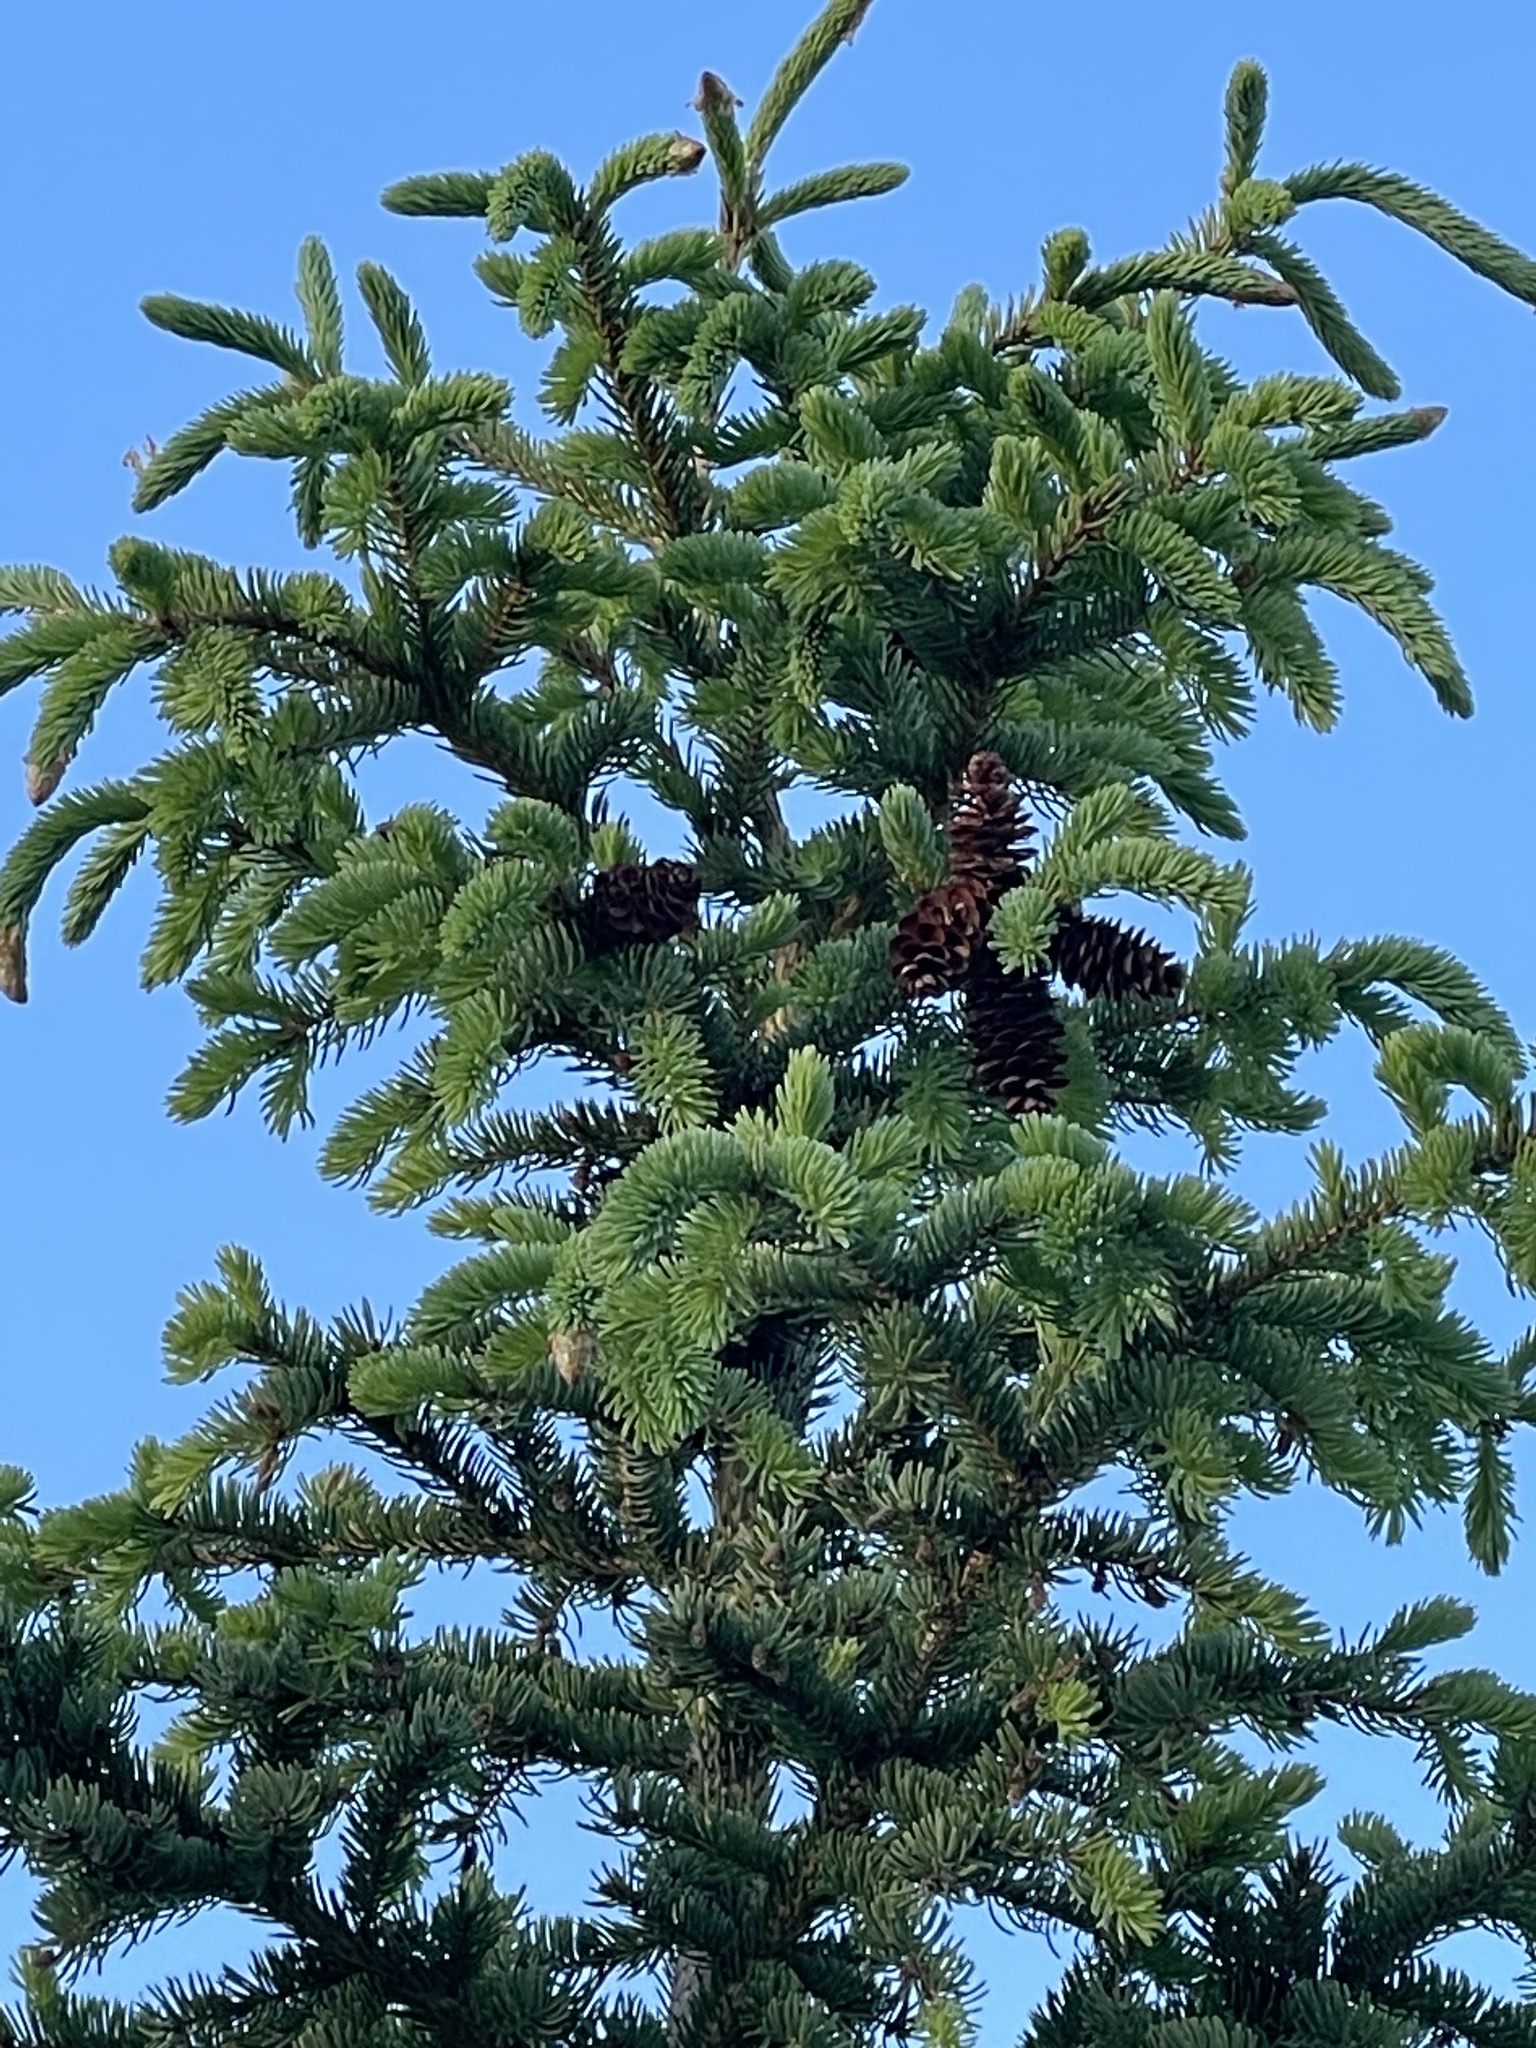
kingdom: Plantae
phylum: Tracheophyta
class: Pinopsida
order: Pinales
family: Pinaceae
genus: Picea
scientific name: Picea glauca
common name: White spruce
